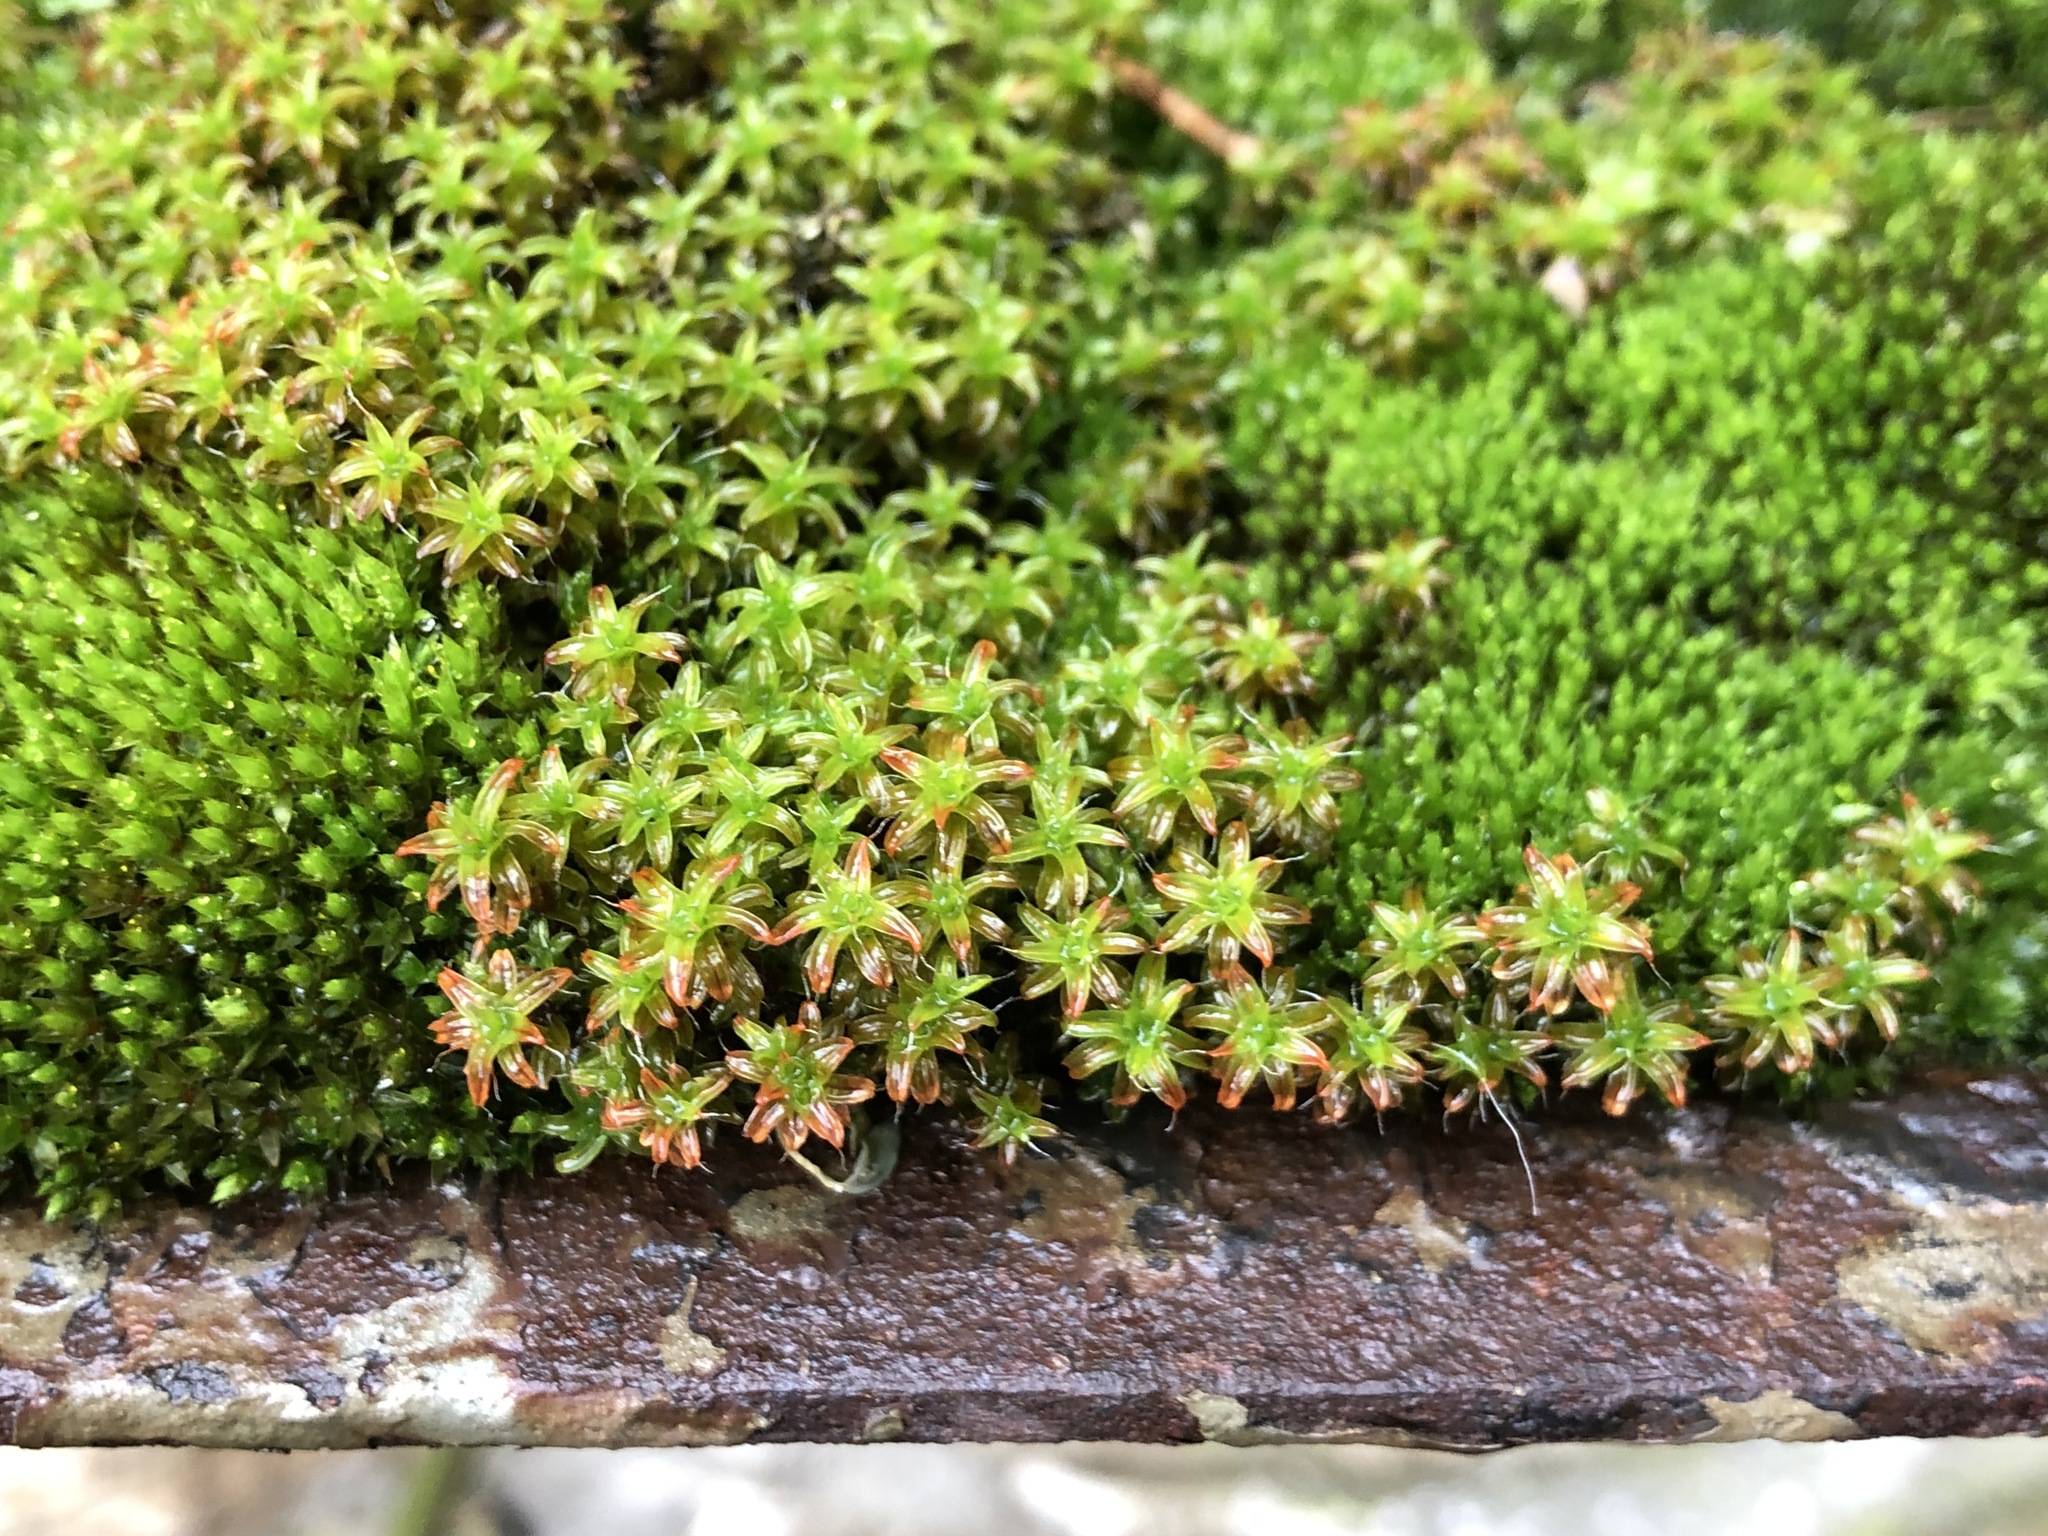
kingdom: Plantae
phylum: Bryophyta
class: Bryopsida
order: Pottiales
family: Pottiaceae
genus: Syntrichia
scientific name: Syntrichia ruralis
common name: Sidewalk screw moss
